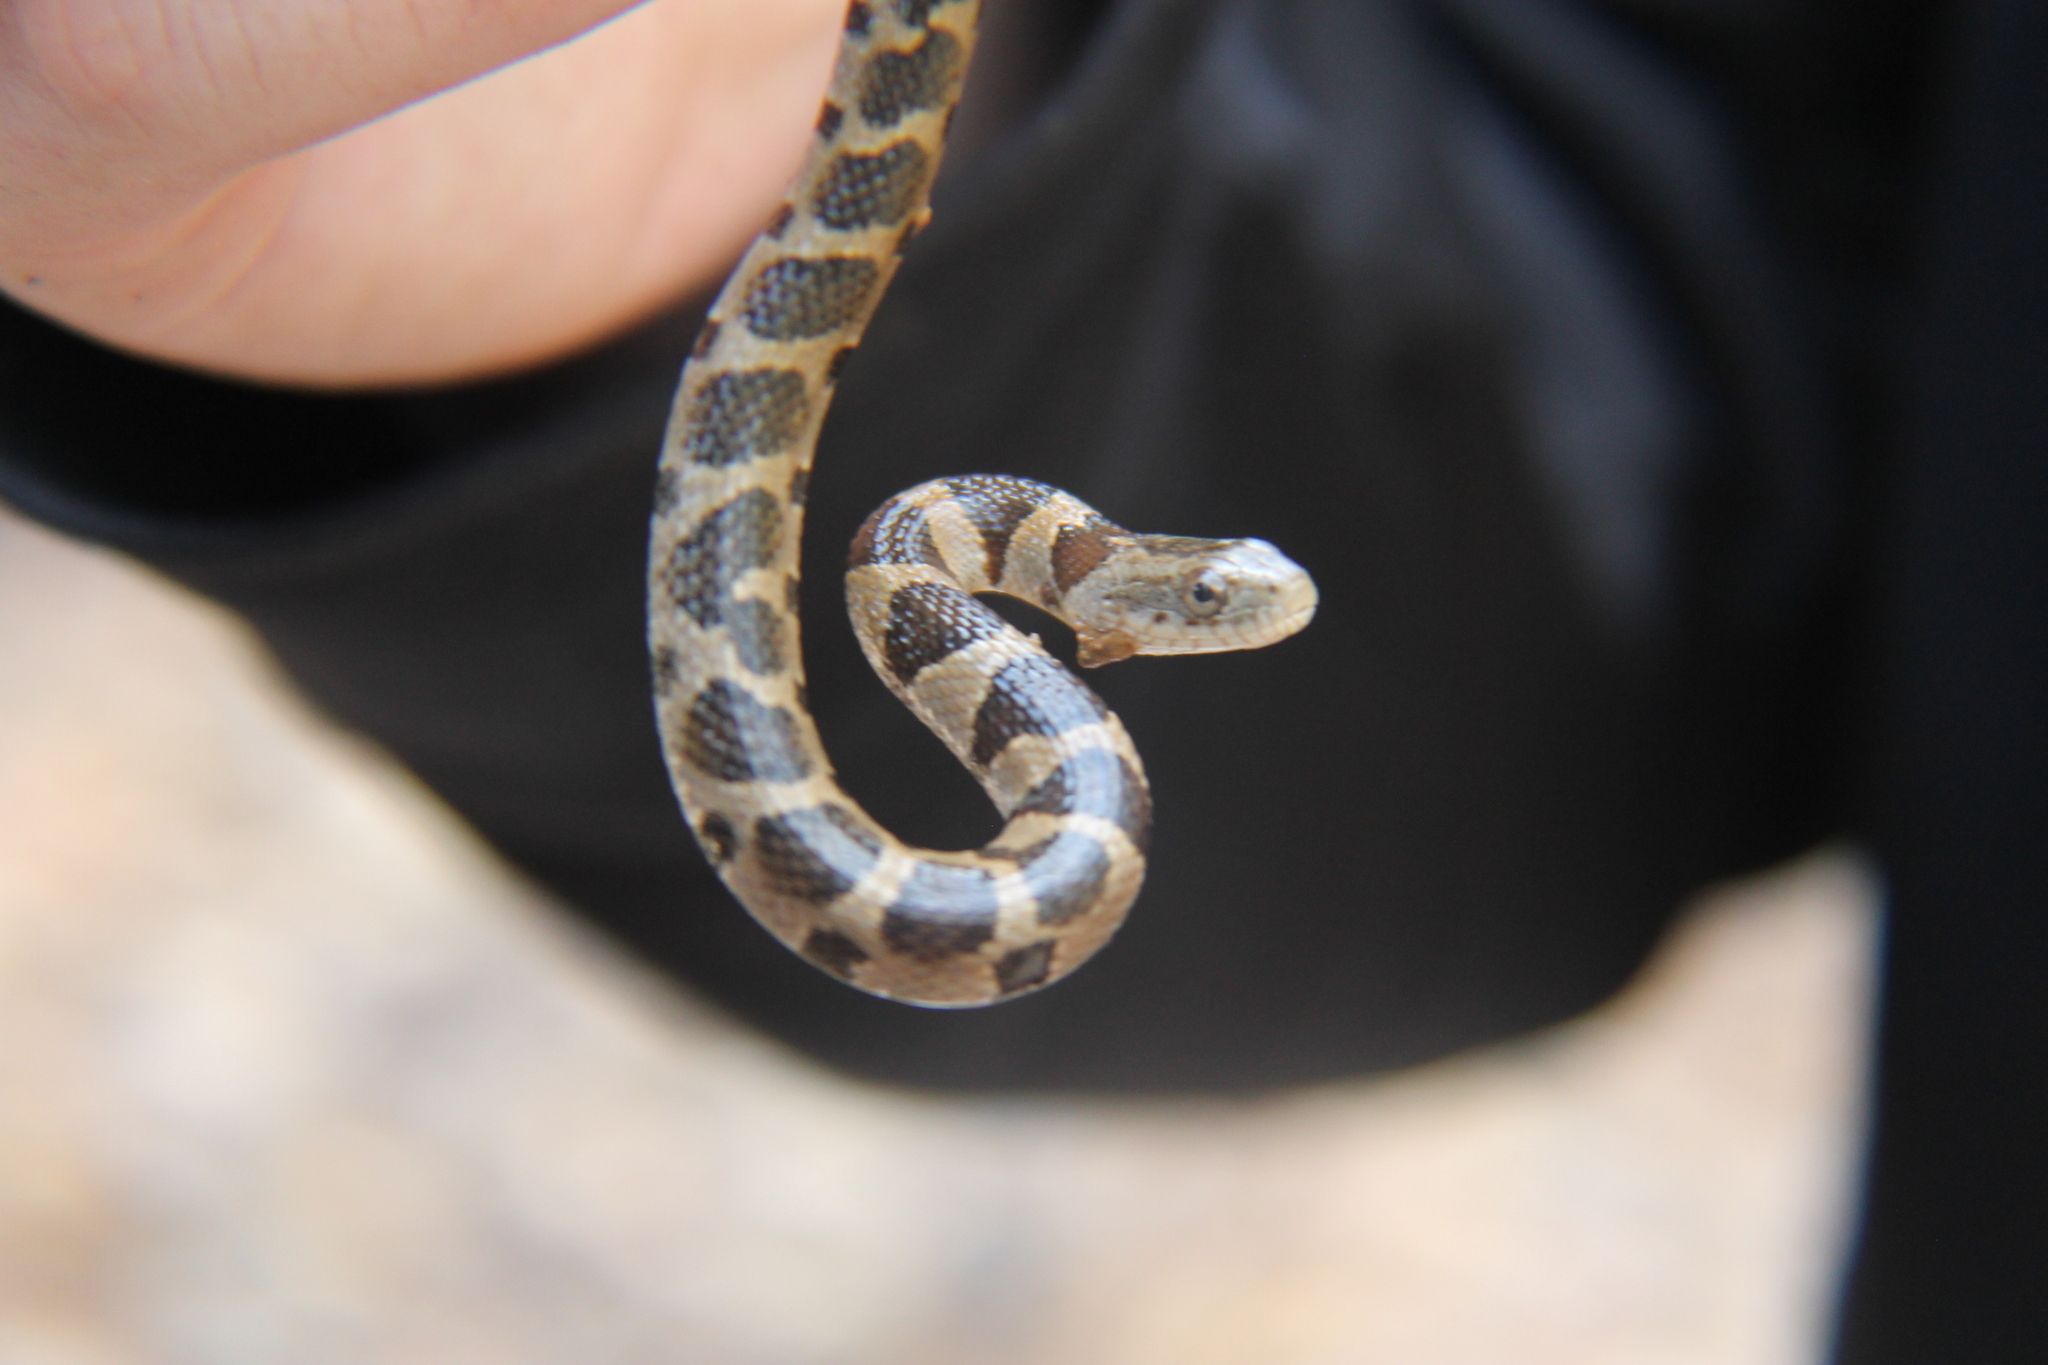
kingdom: Animalia
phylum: Chordata
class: Squamata
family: Colubridae
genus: Nerodia
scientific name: Nerodia sipedon
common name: Northern water snake
